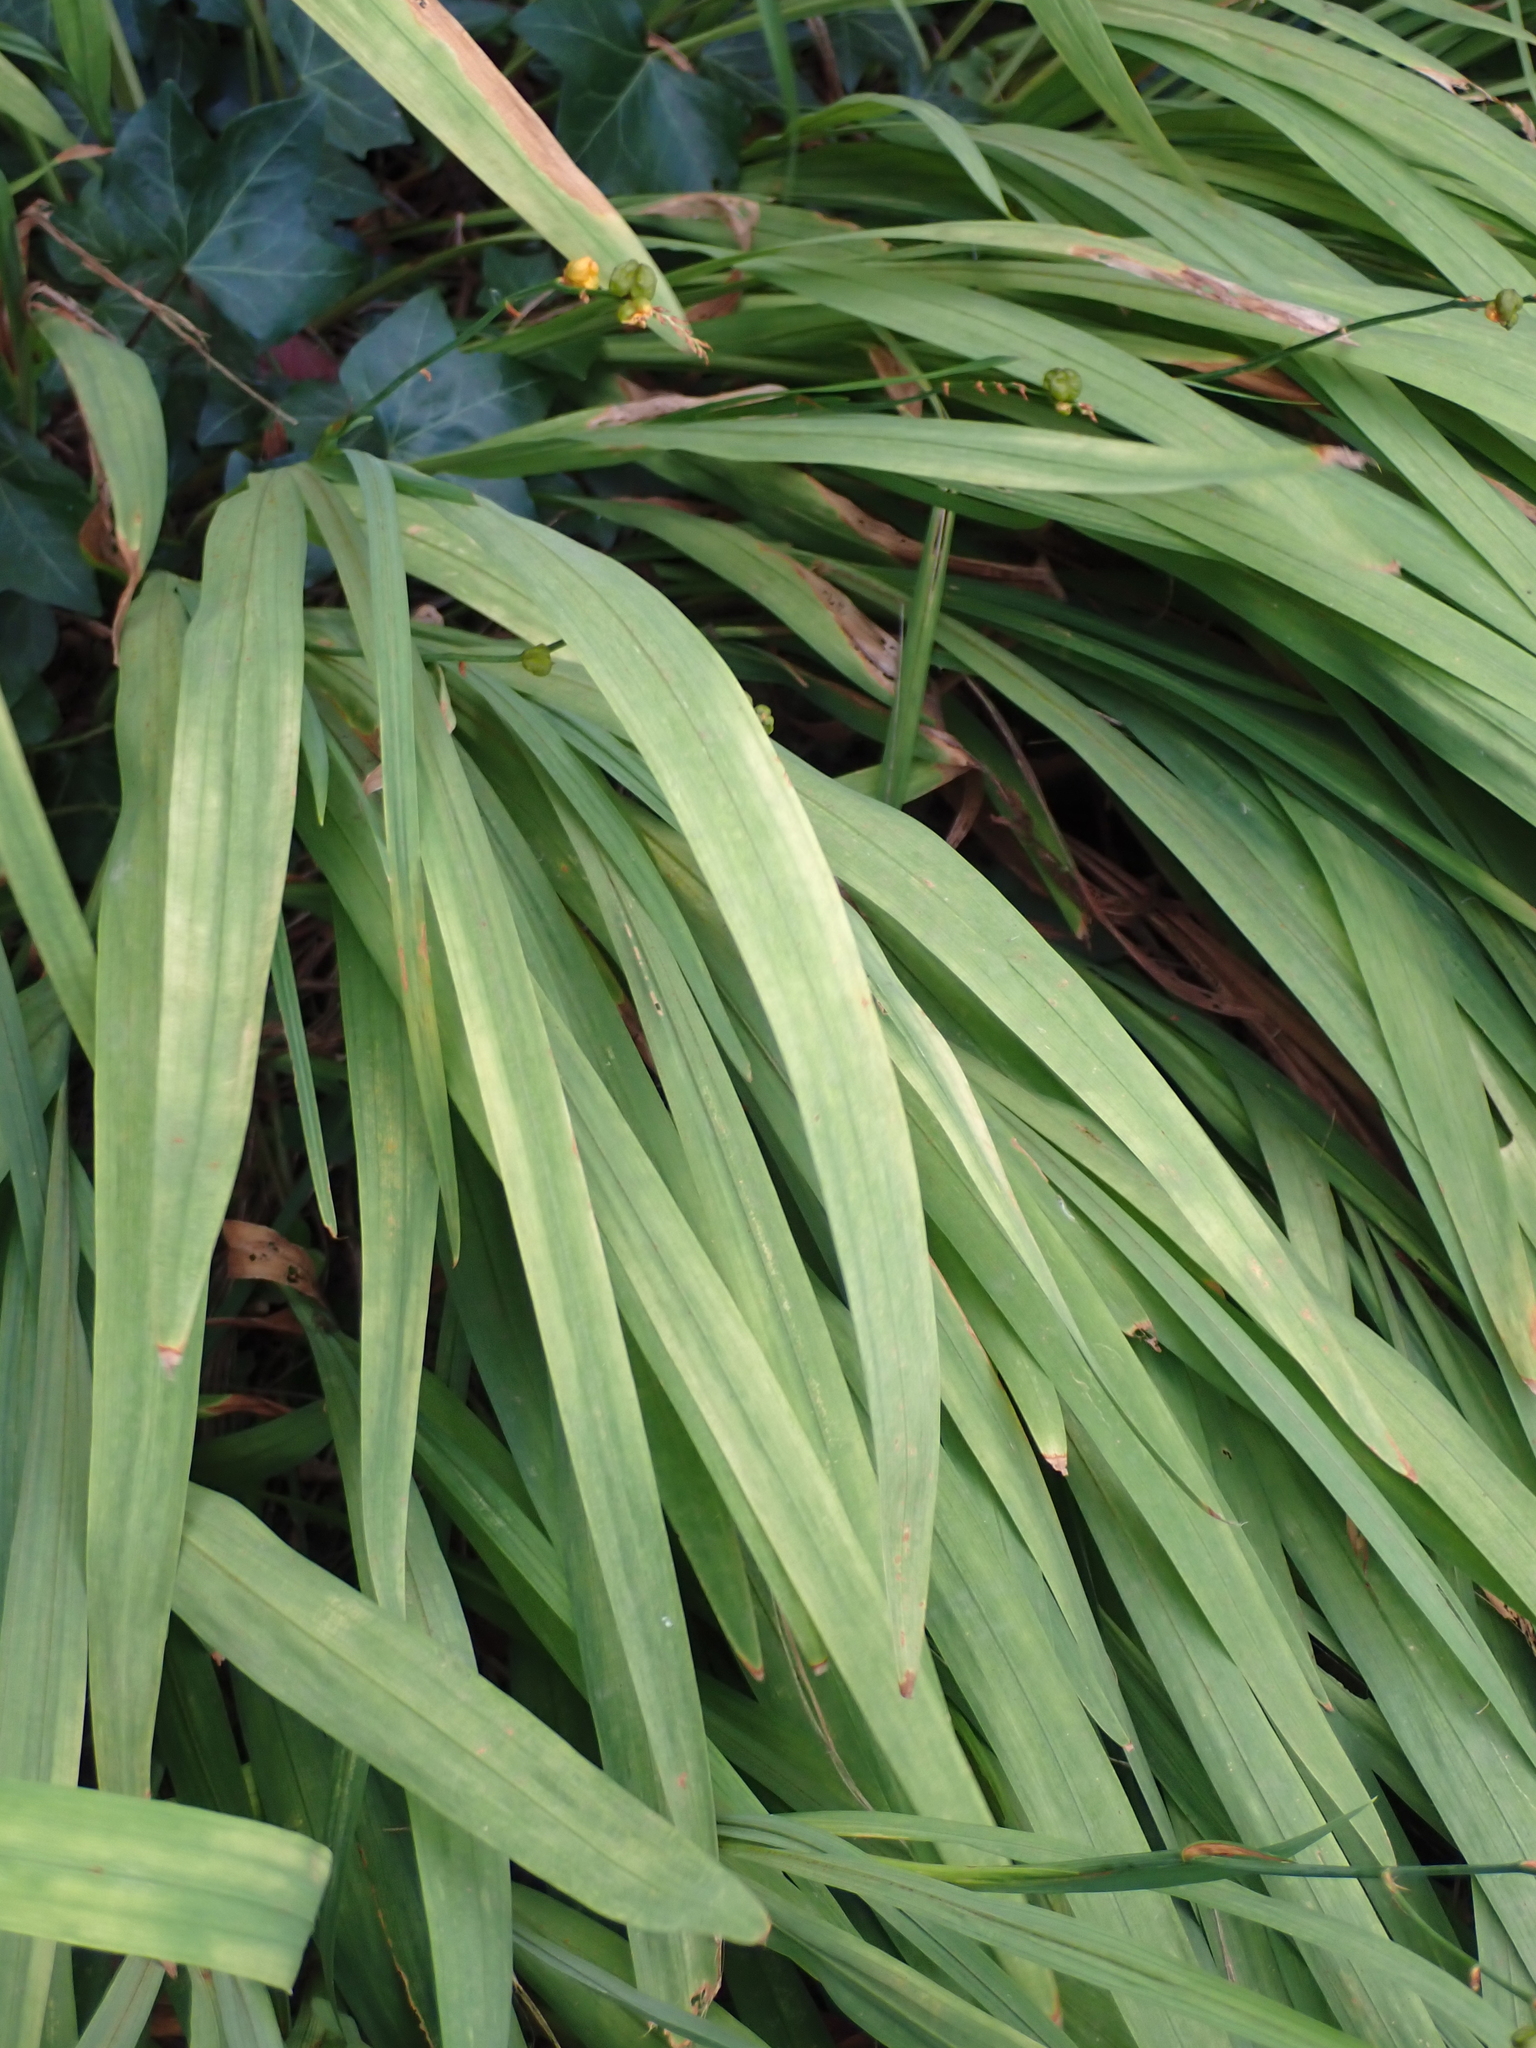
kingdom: Plantae
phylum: Tracheophyta
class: Liliopsida
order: Asparagales
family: Iridaceae
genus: Crocosmia
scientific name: Crocosmia crocosmiiflora
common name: Montbretia
